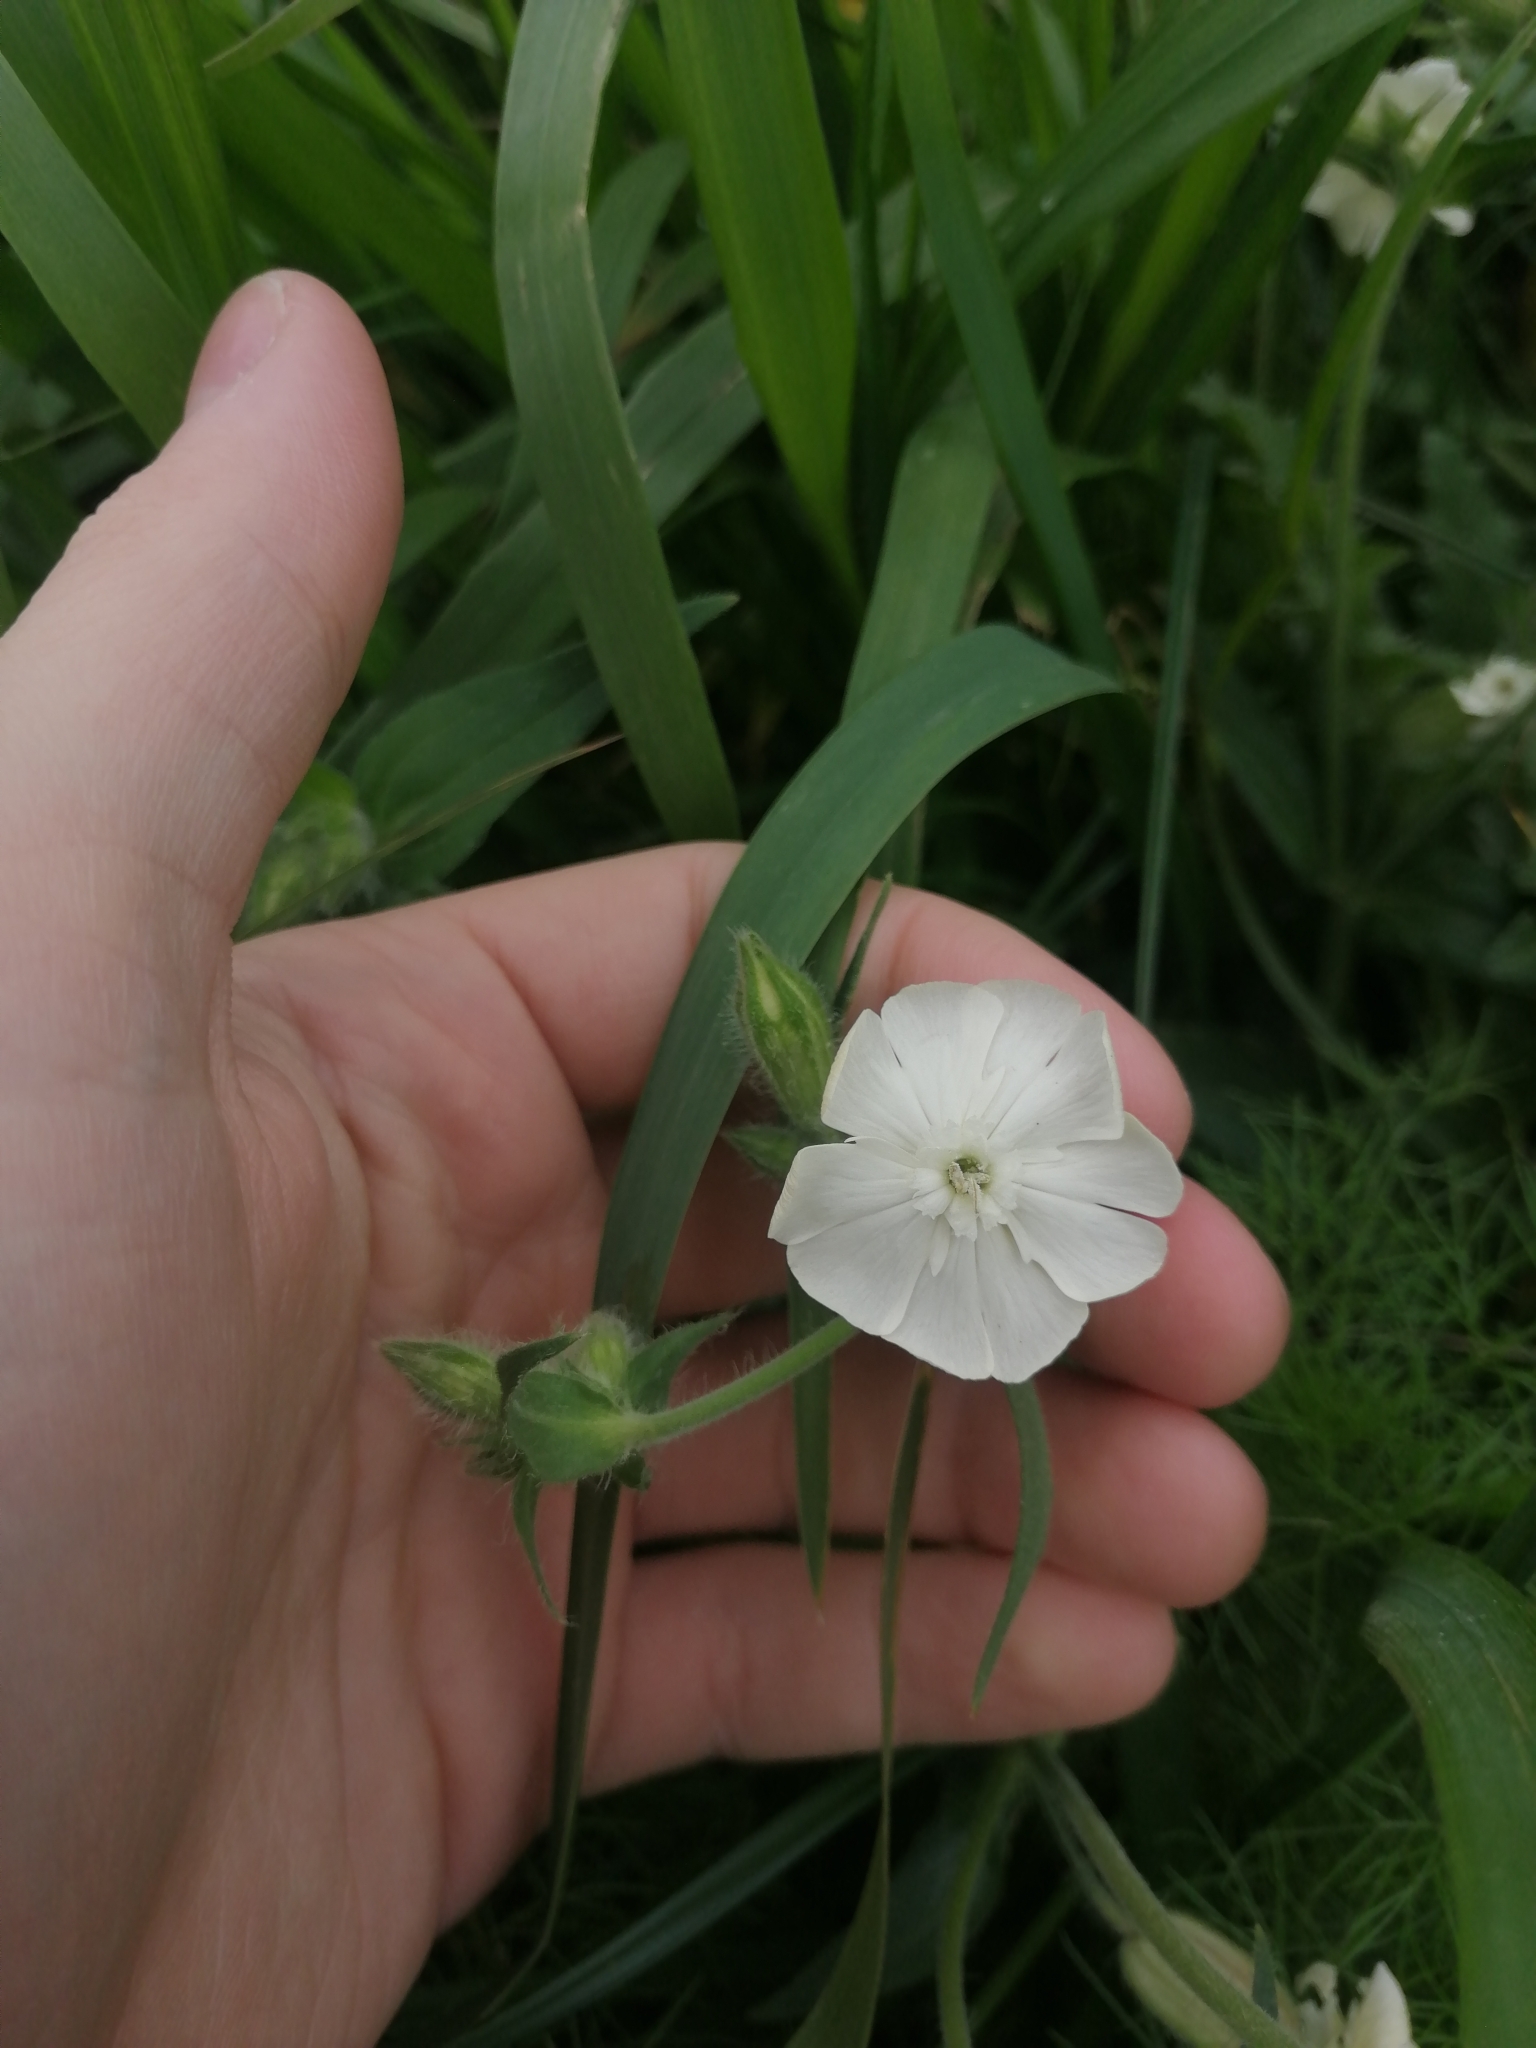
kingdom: Plantae
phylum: Tracheophyta
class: Magnoliopsida
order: Caryophyllales
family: Caryophyllaceae
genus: Silene
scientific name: Silene latifolia
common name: White campion
